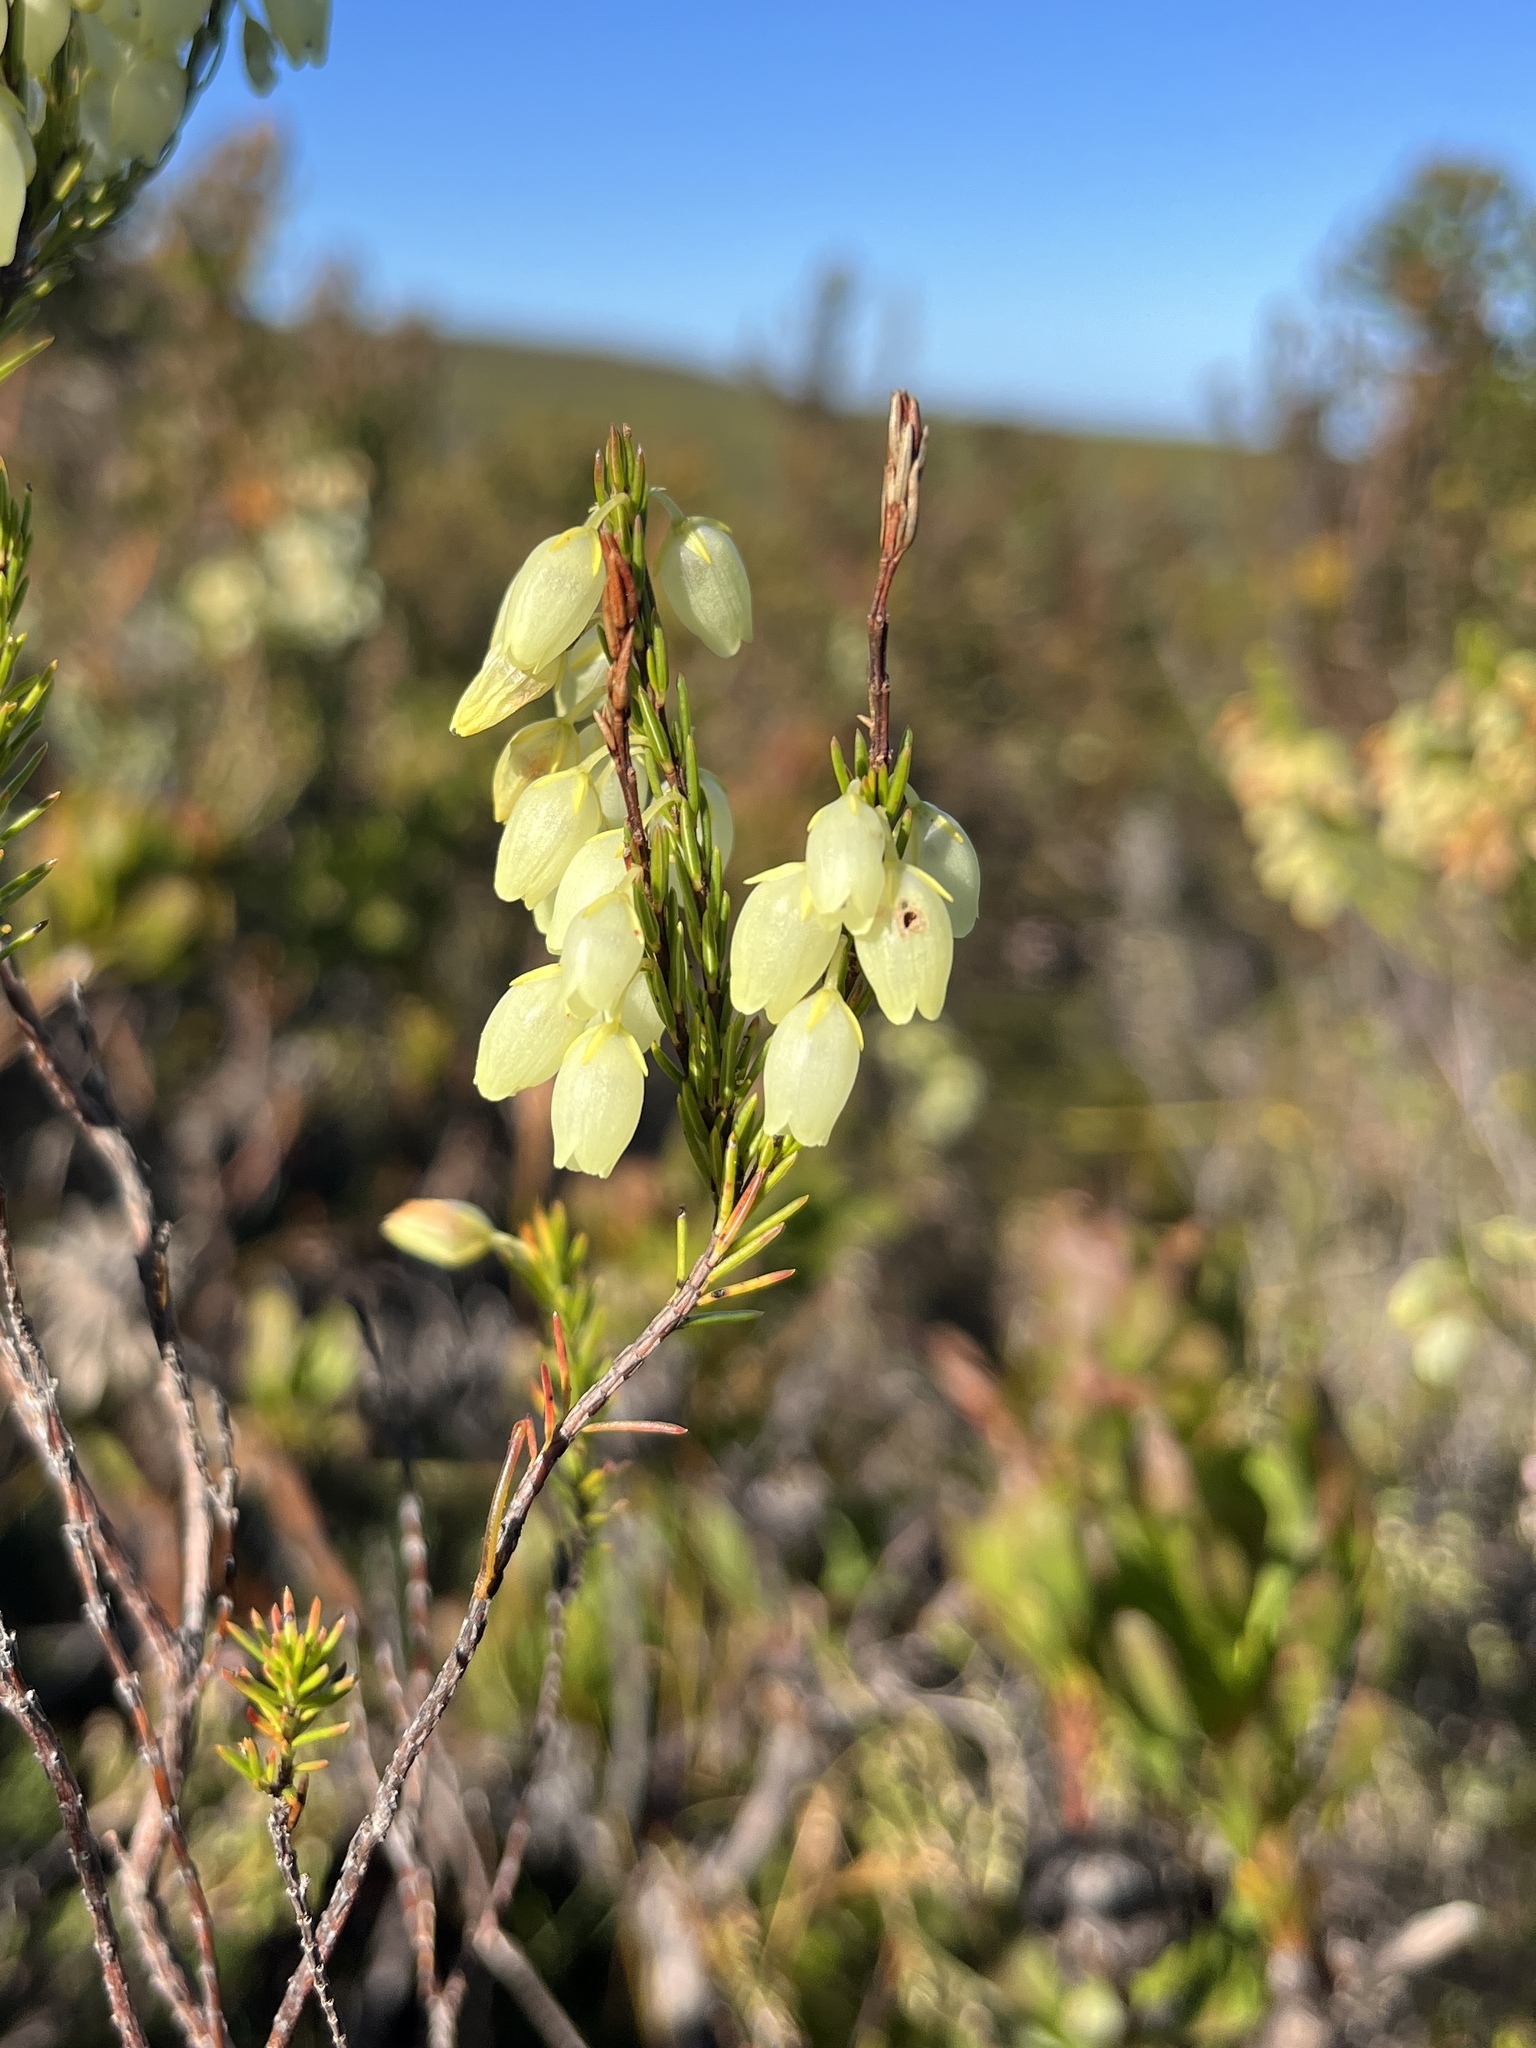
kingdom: Plantae
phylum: Tracheophyta
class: Magnoliopsida
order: Ericales
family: Ericaceae
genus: Erica
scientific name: Erica filipendula
